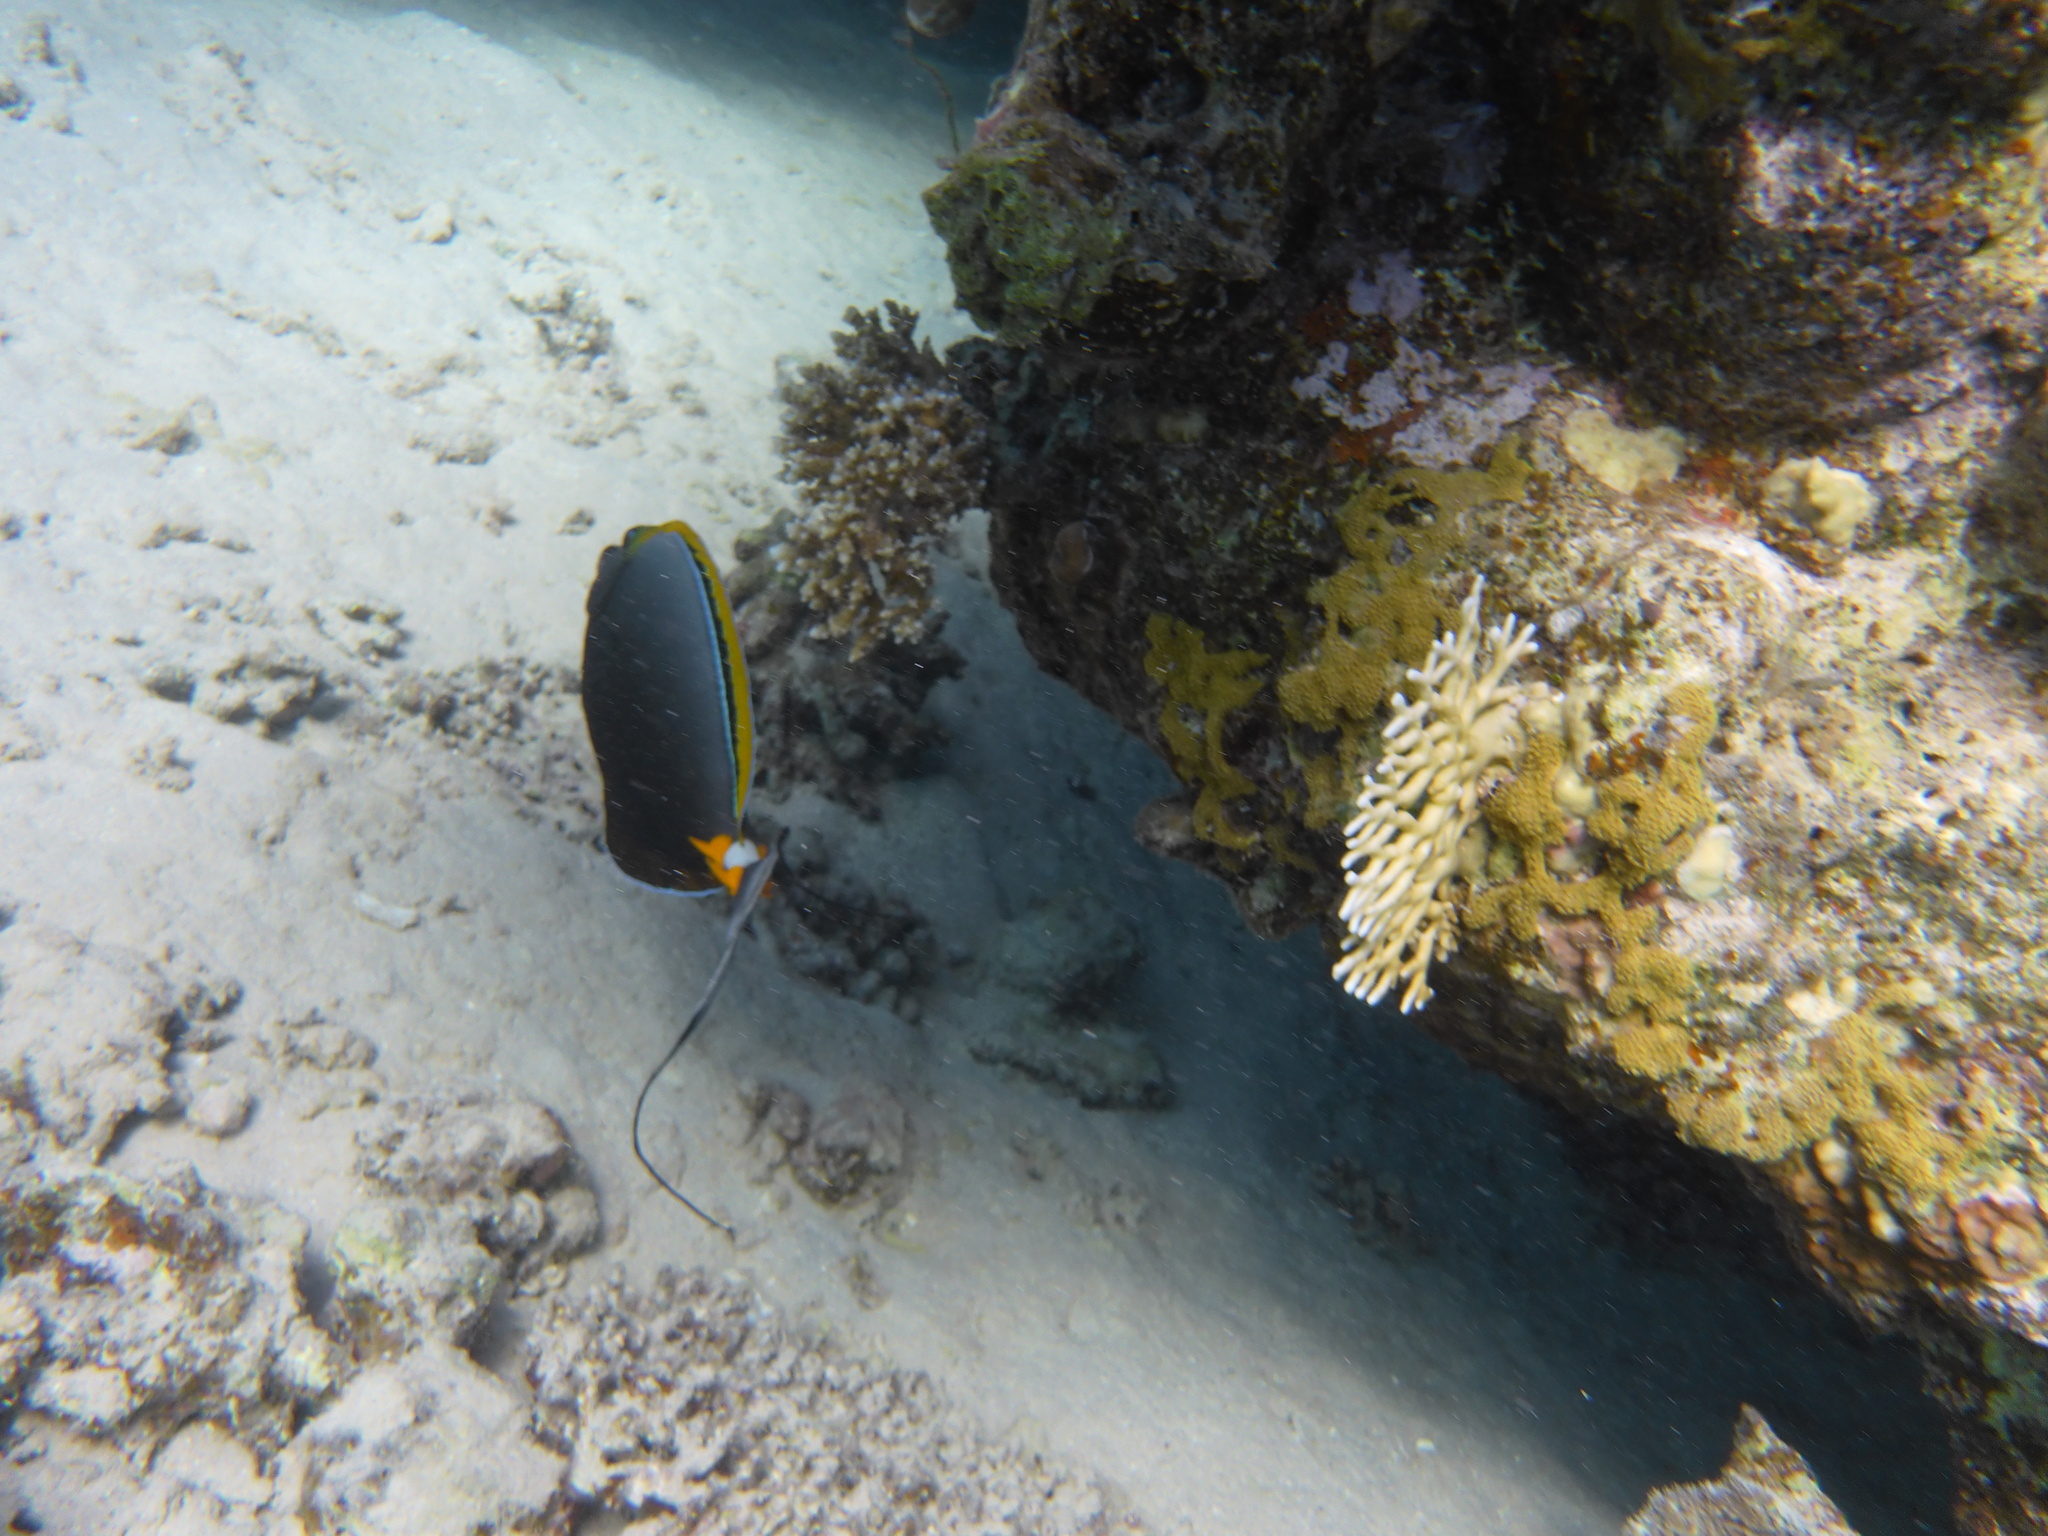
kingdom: Animalia
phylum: Chordata
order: Perciformes
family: Acanthuridae
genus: Naso
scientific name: Naso elegans
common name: Orangespine unicornfish
